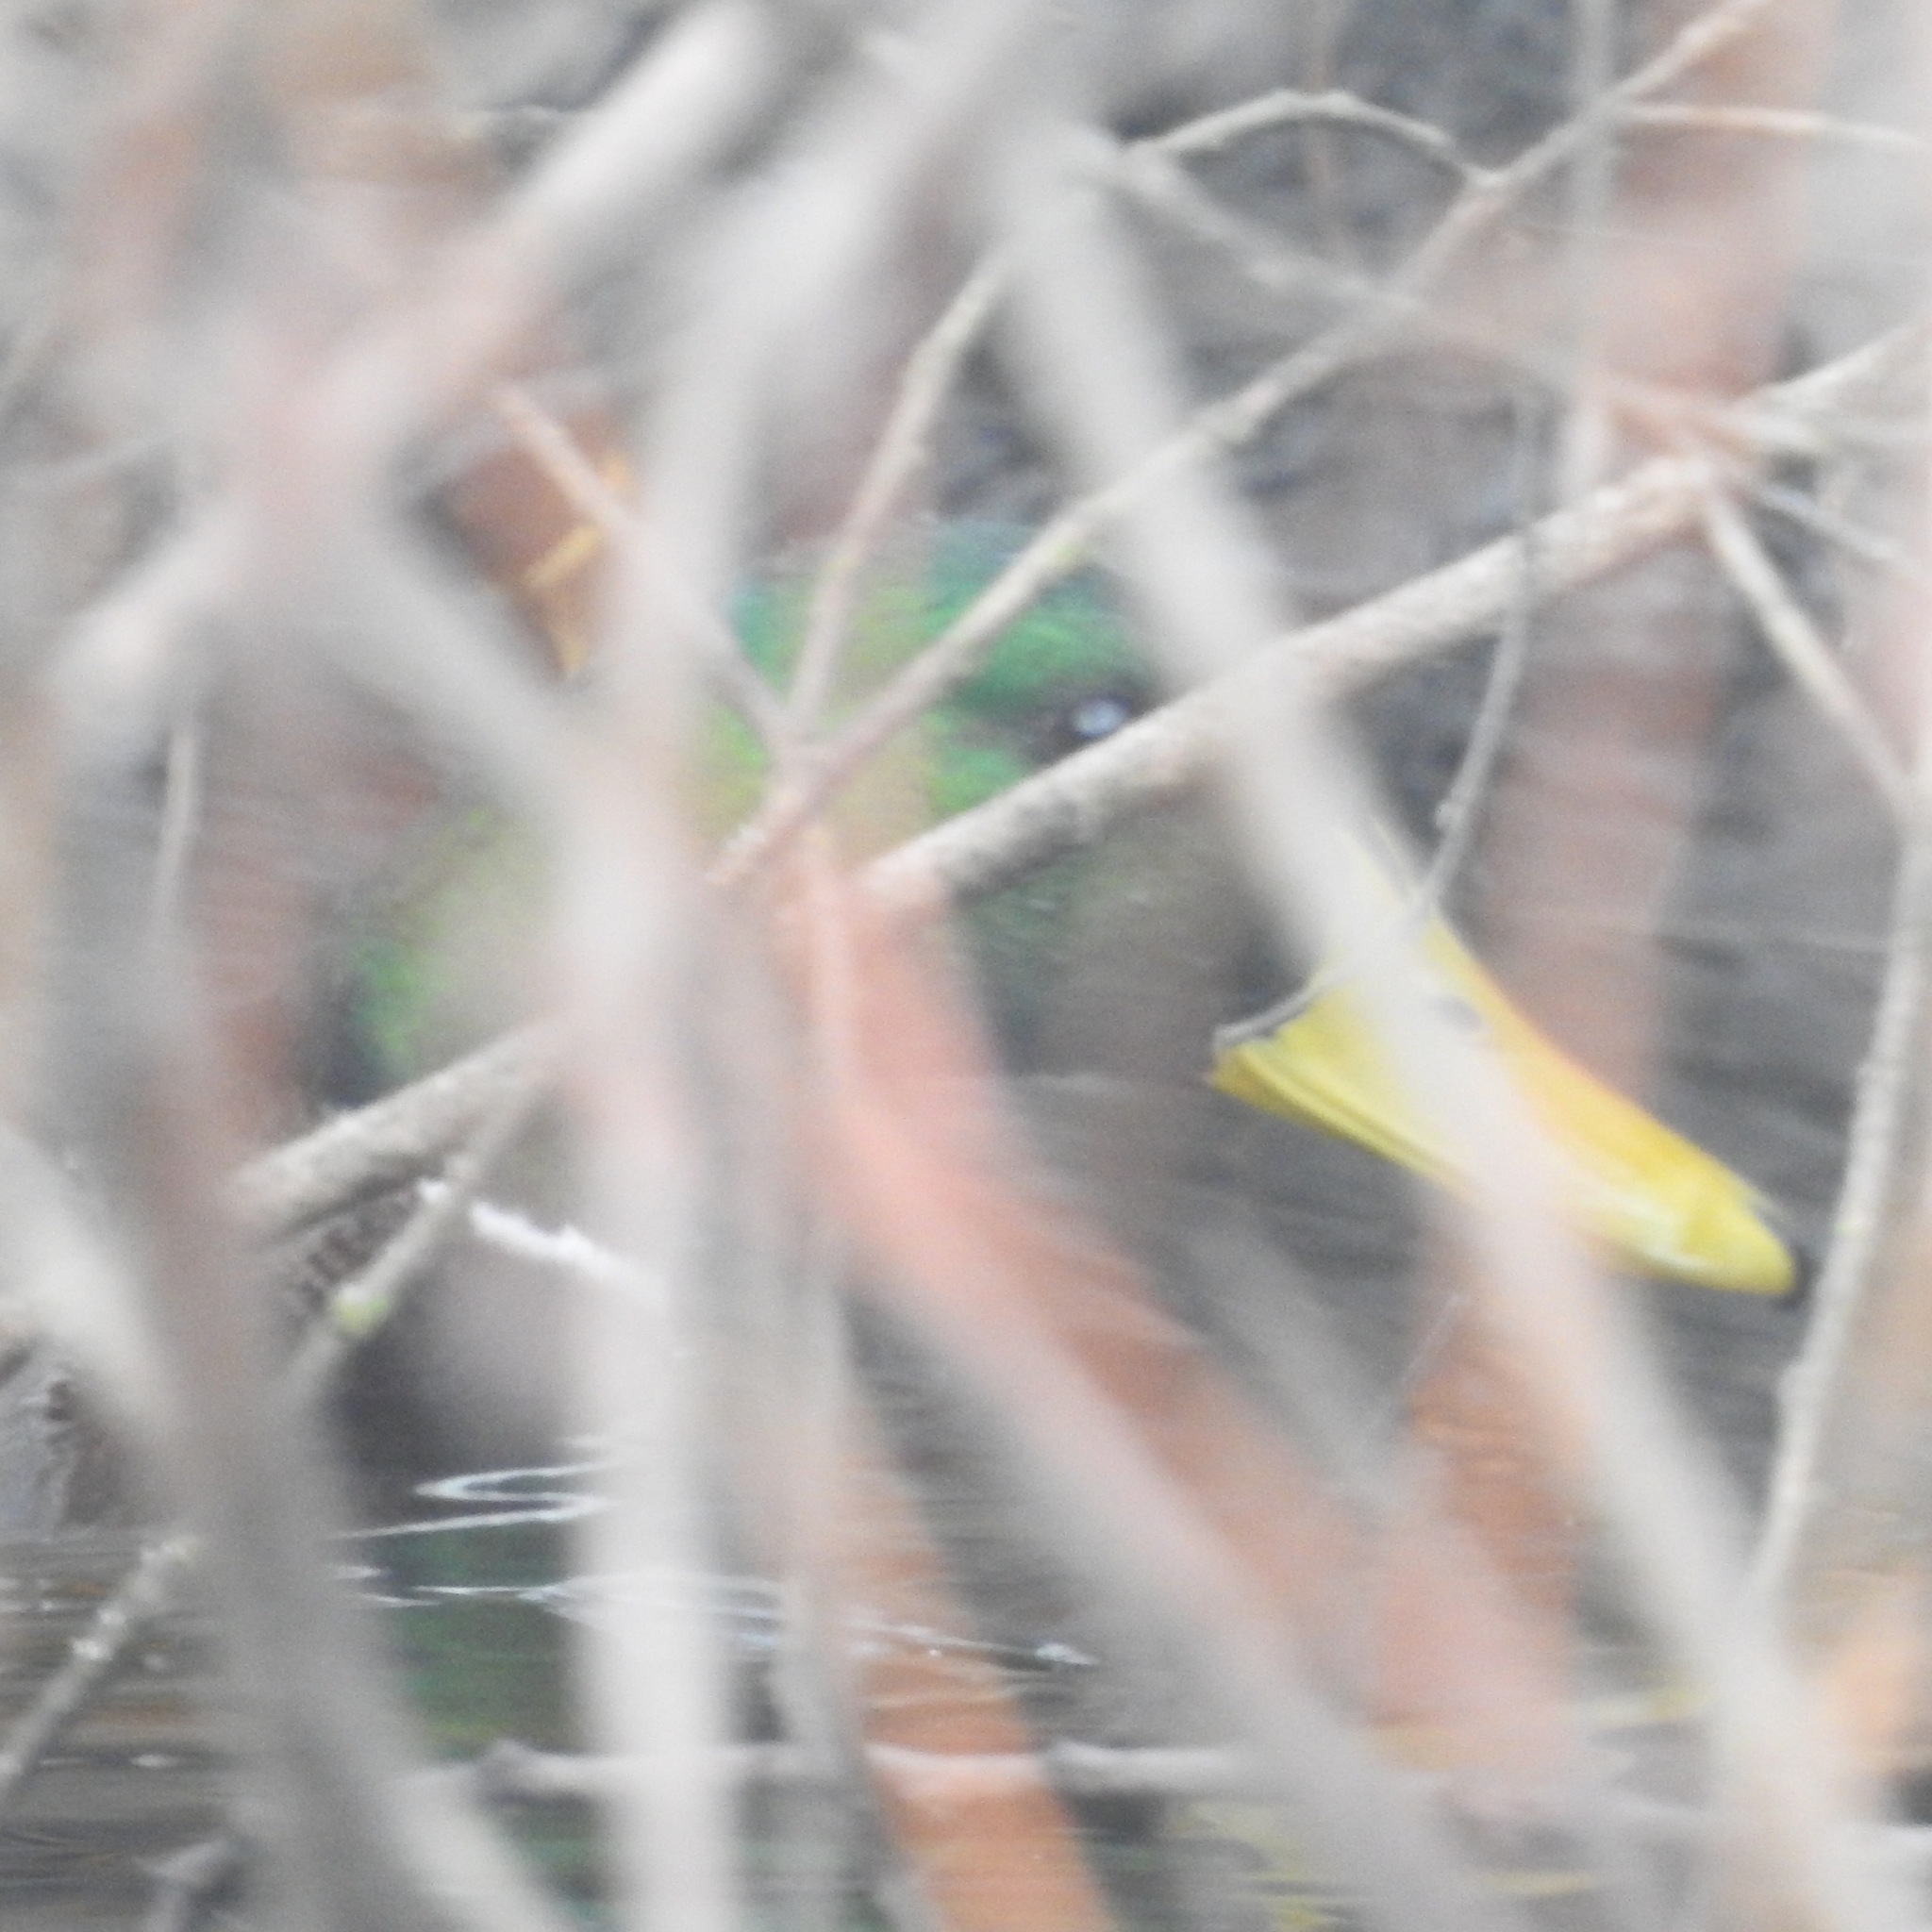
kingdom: Animalia
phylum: Chordata
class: Aves
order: Anseriformes
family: Anatidae
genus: Anas
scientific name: Anas platyrhynchos
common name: Mallard
